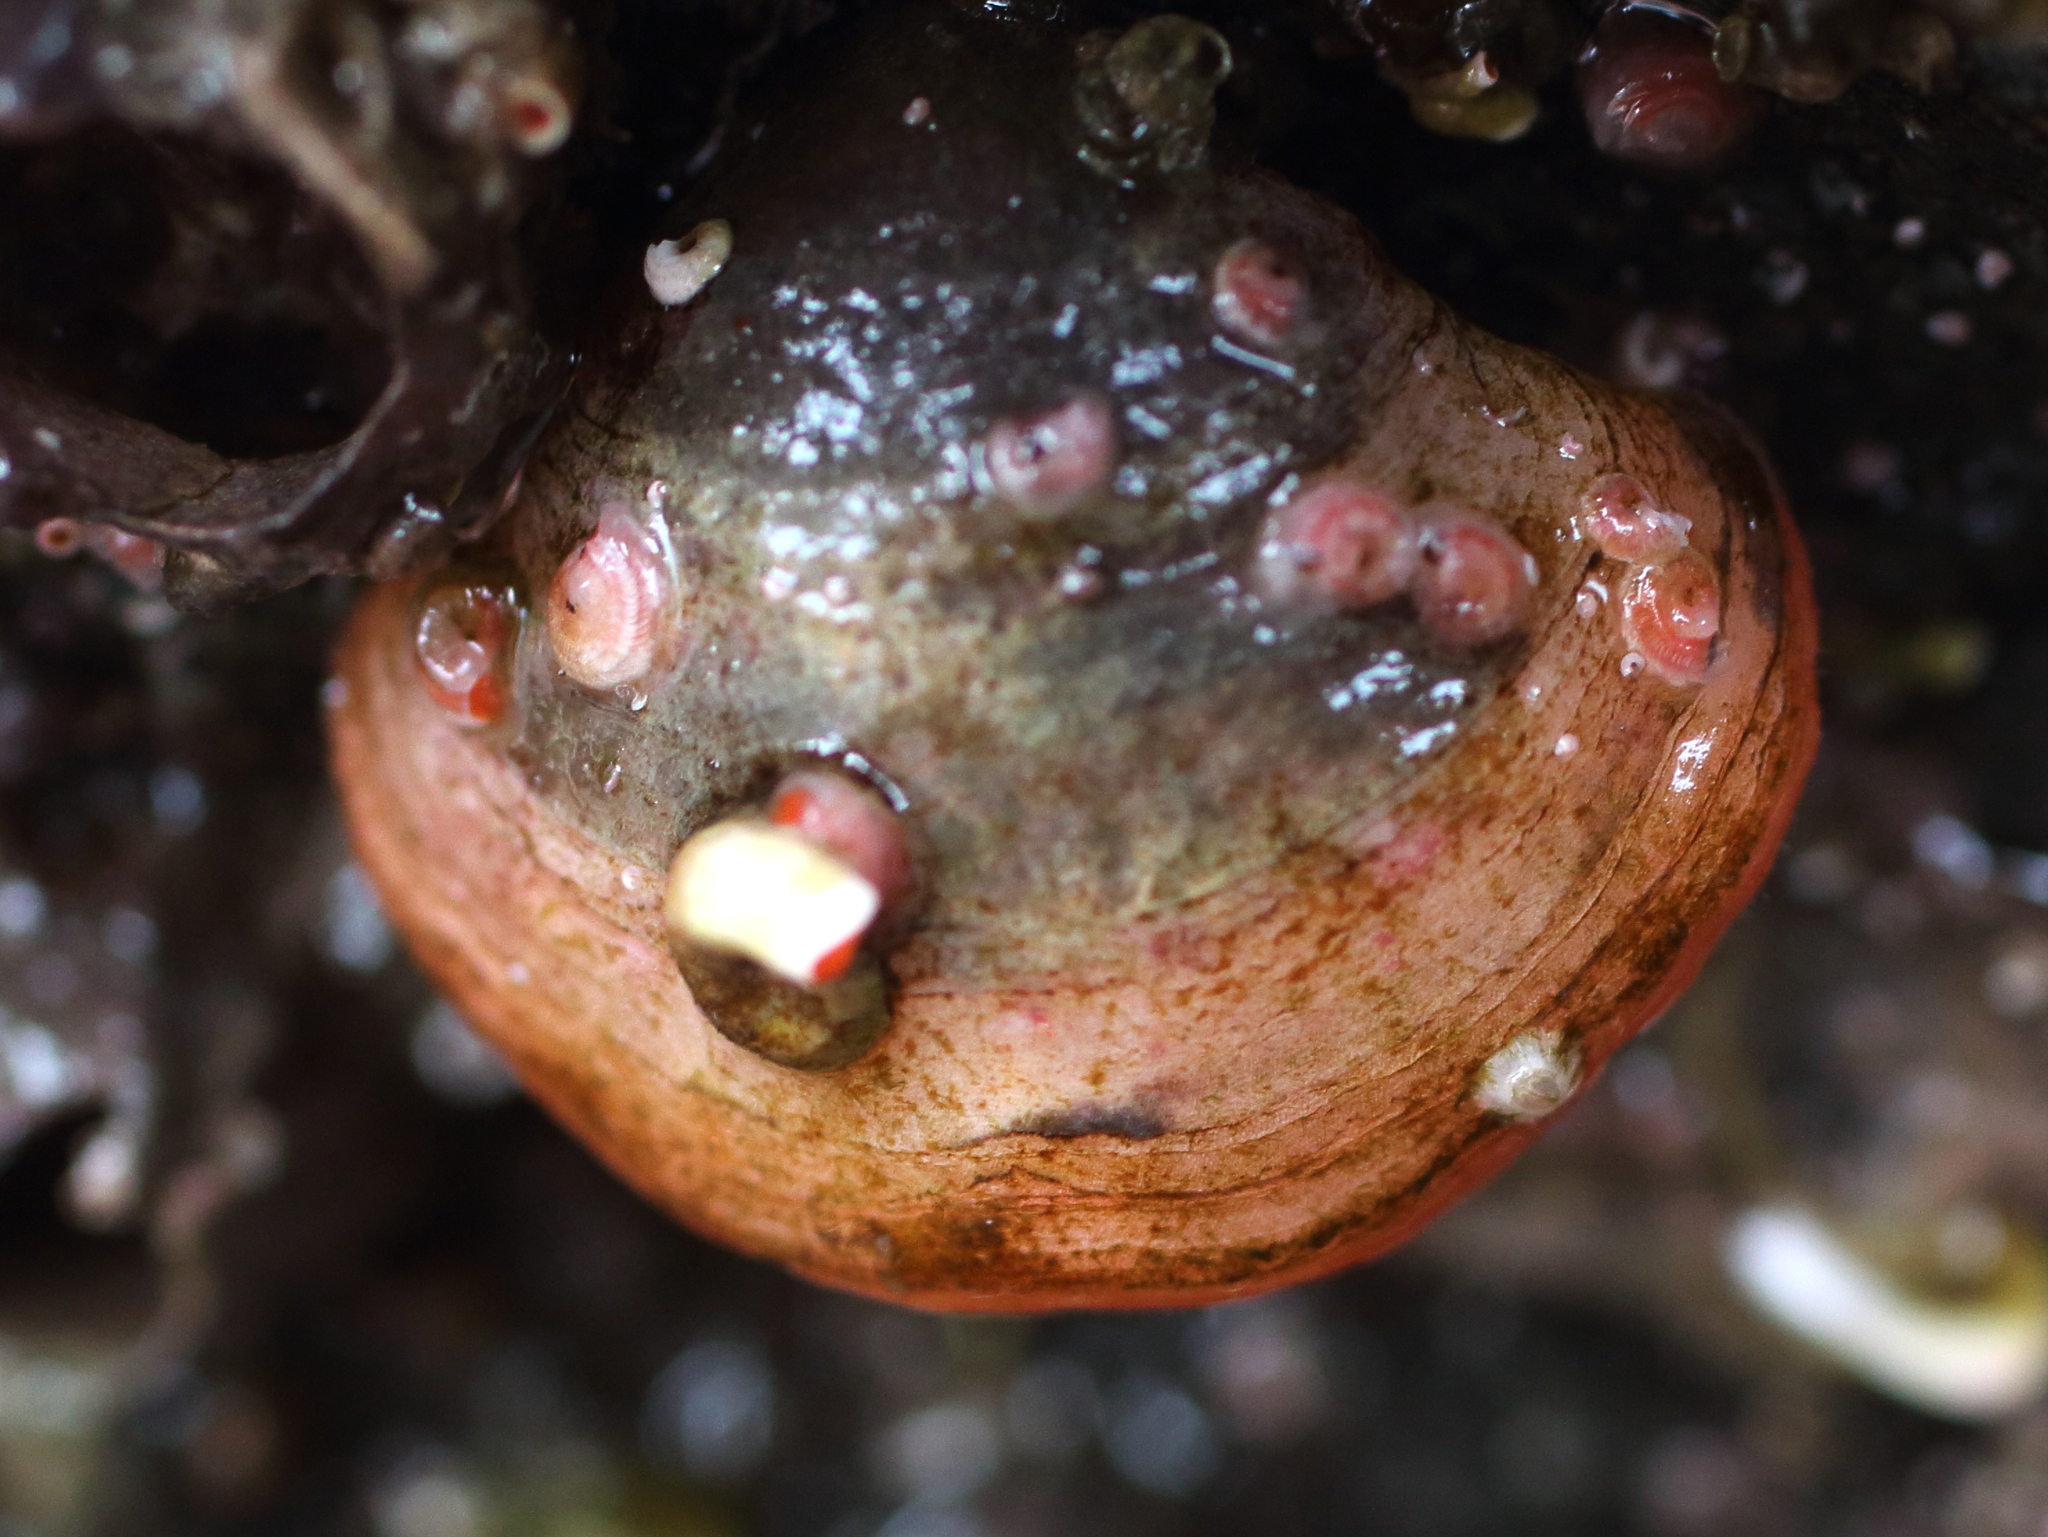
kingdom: Animalia
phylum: Brachiopoda
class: Rhynchonellata
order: Terebratulida
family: Terebrataliidae
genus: Terebratalia
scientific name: Terebratalia transversa
